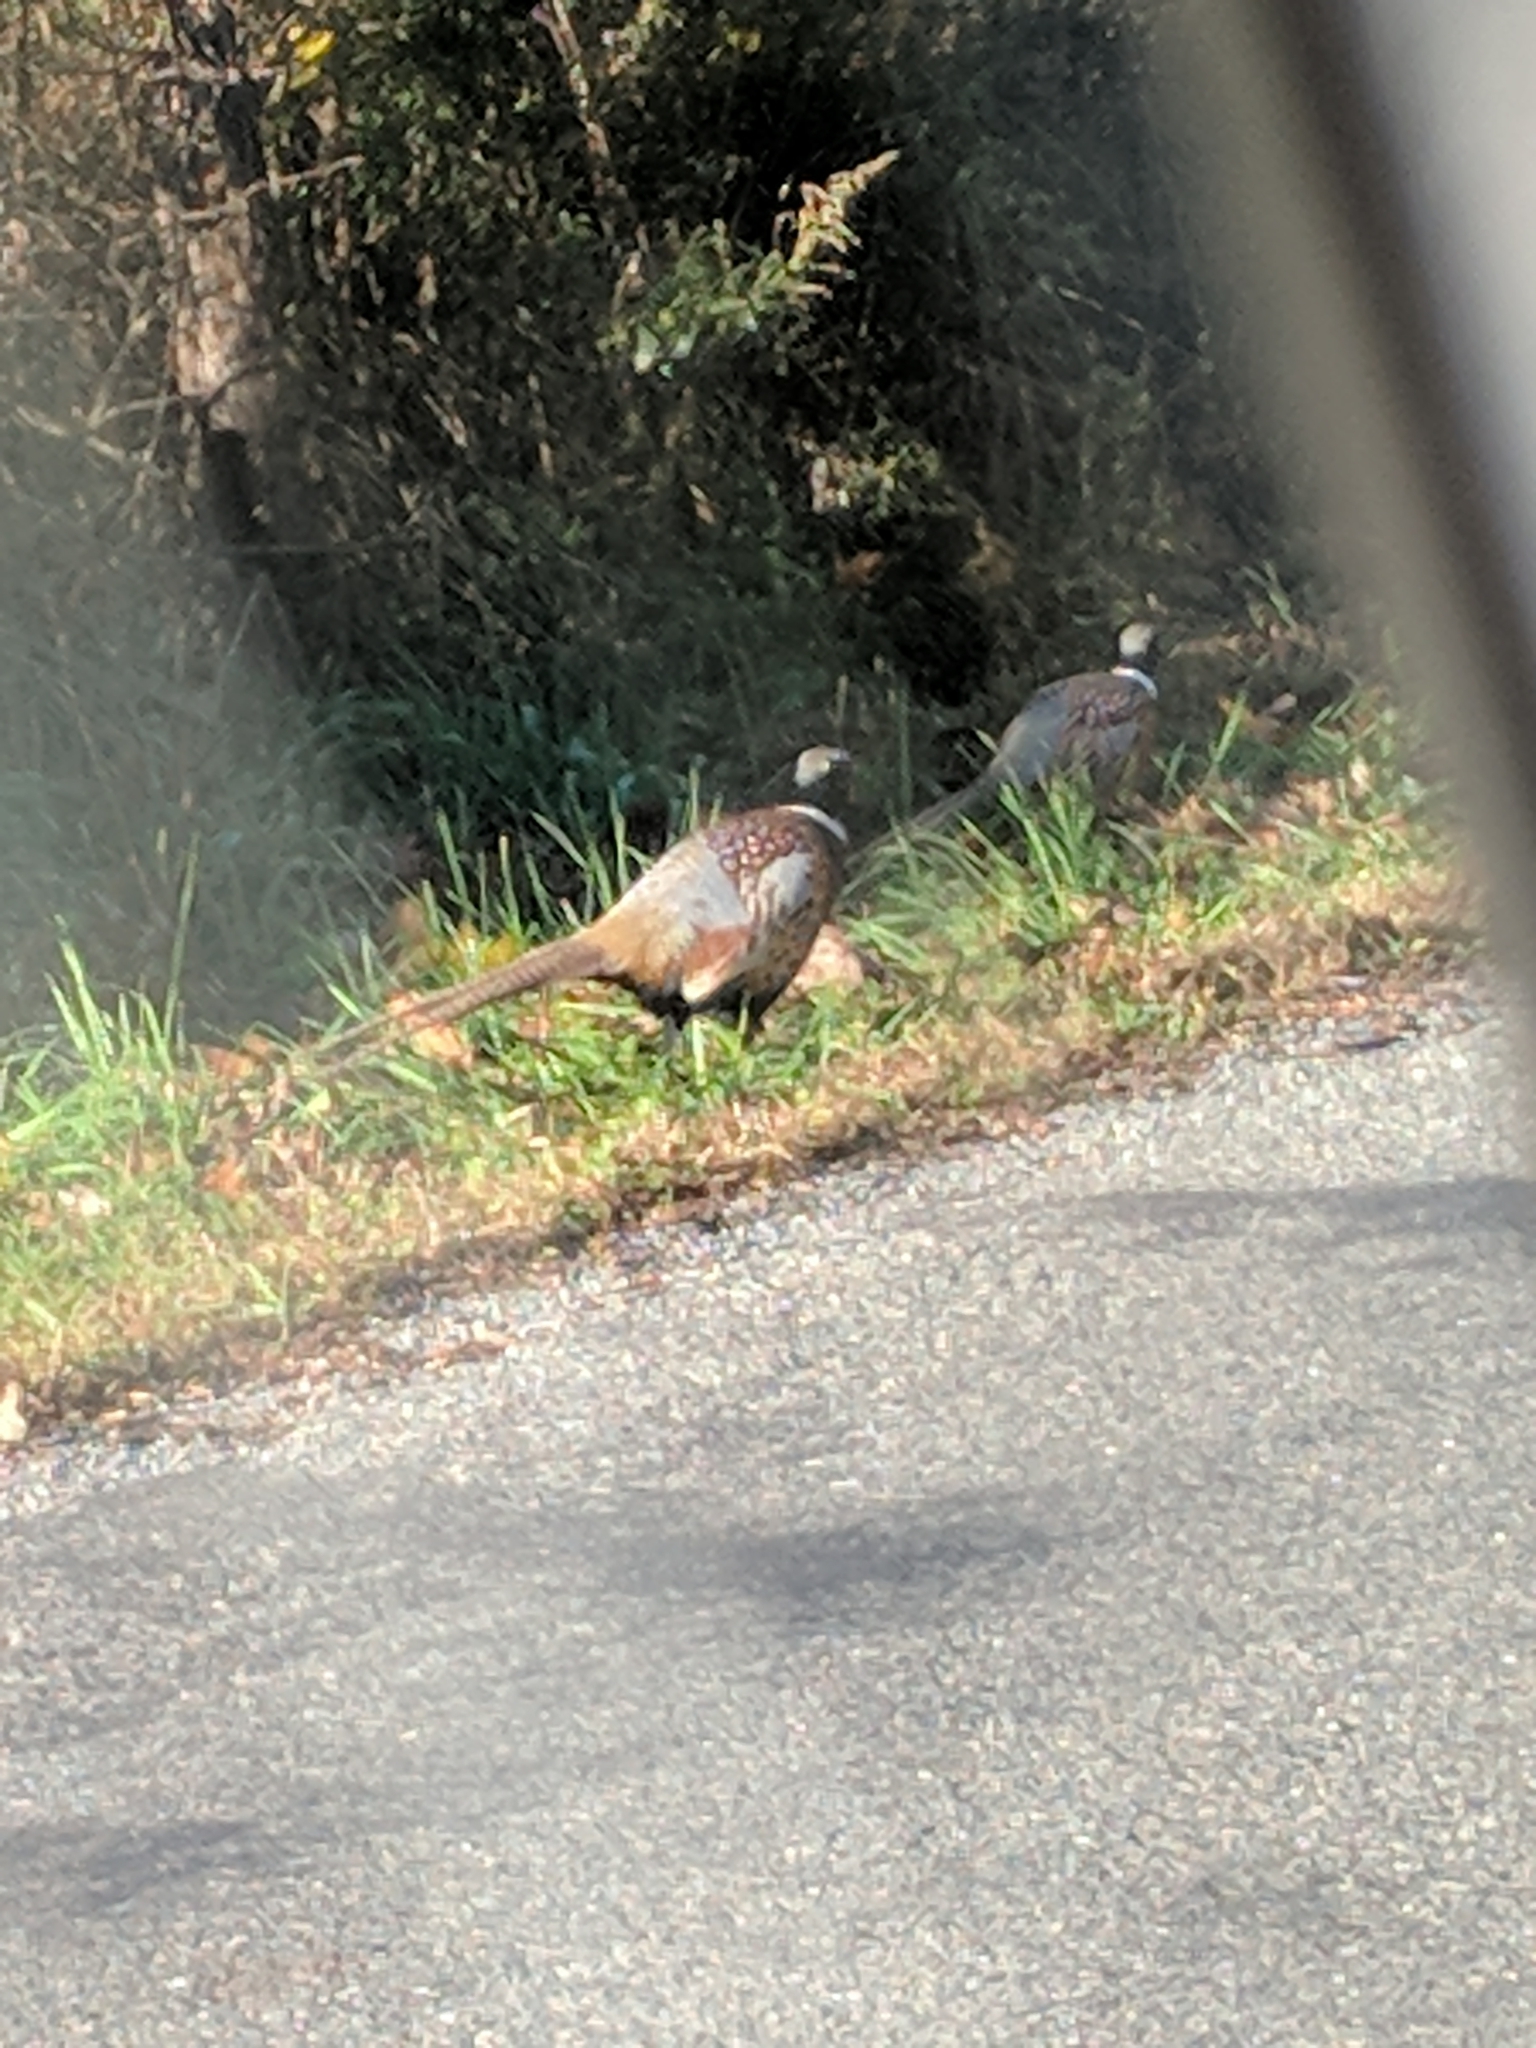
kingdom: Animalia
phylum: Chordata
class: Aves
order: Galliformes
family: Phasianidae
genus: Phasianus
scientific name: Phasianus colchicus
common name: Common pheasant
